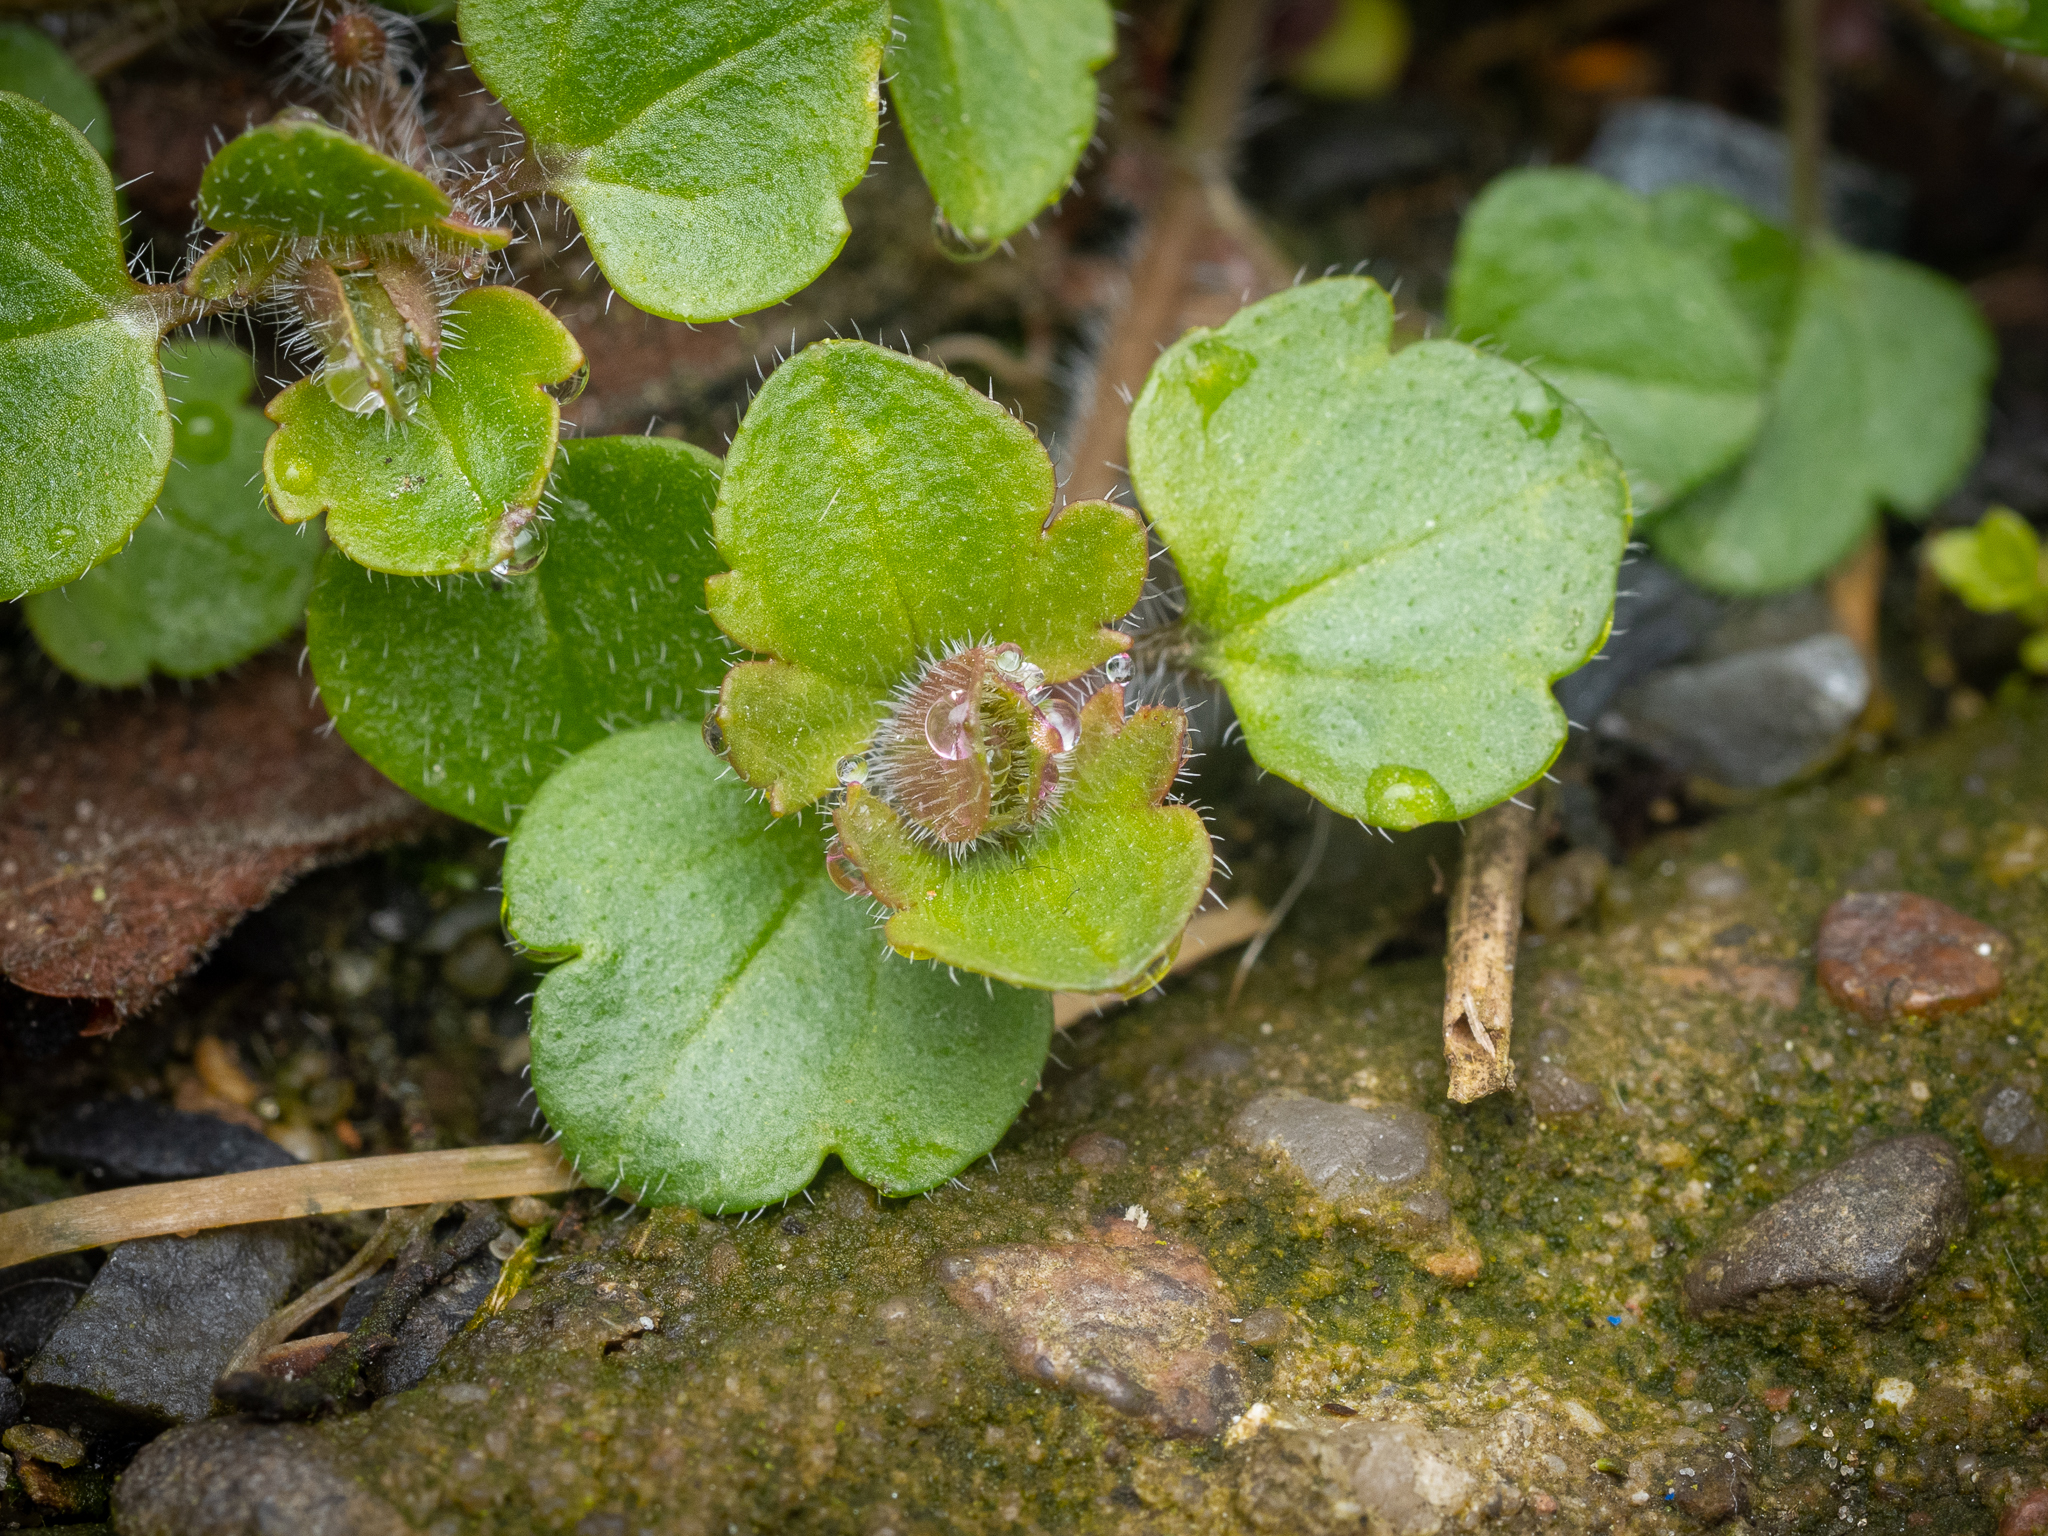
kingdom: Plantae
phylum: Tracheophyta
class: Magnoliopsida
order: Lamiales
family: Plantaginaceae
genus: Veronica
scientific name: Veronica
